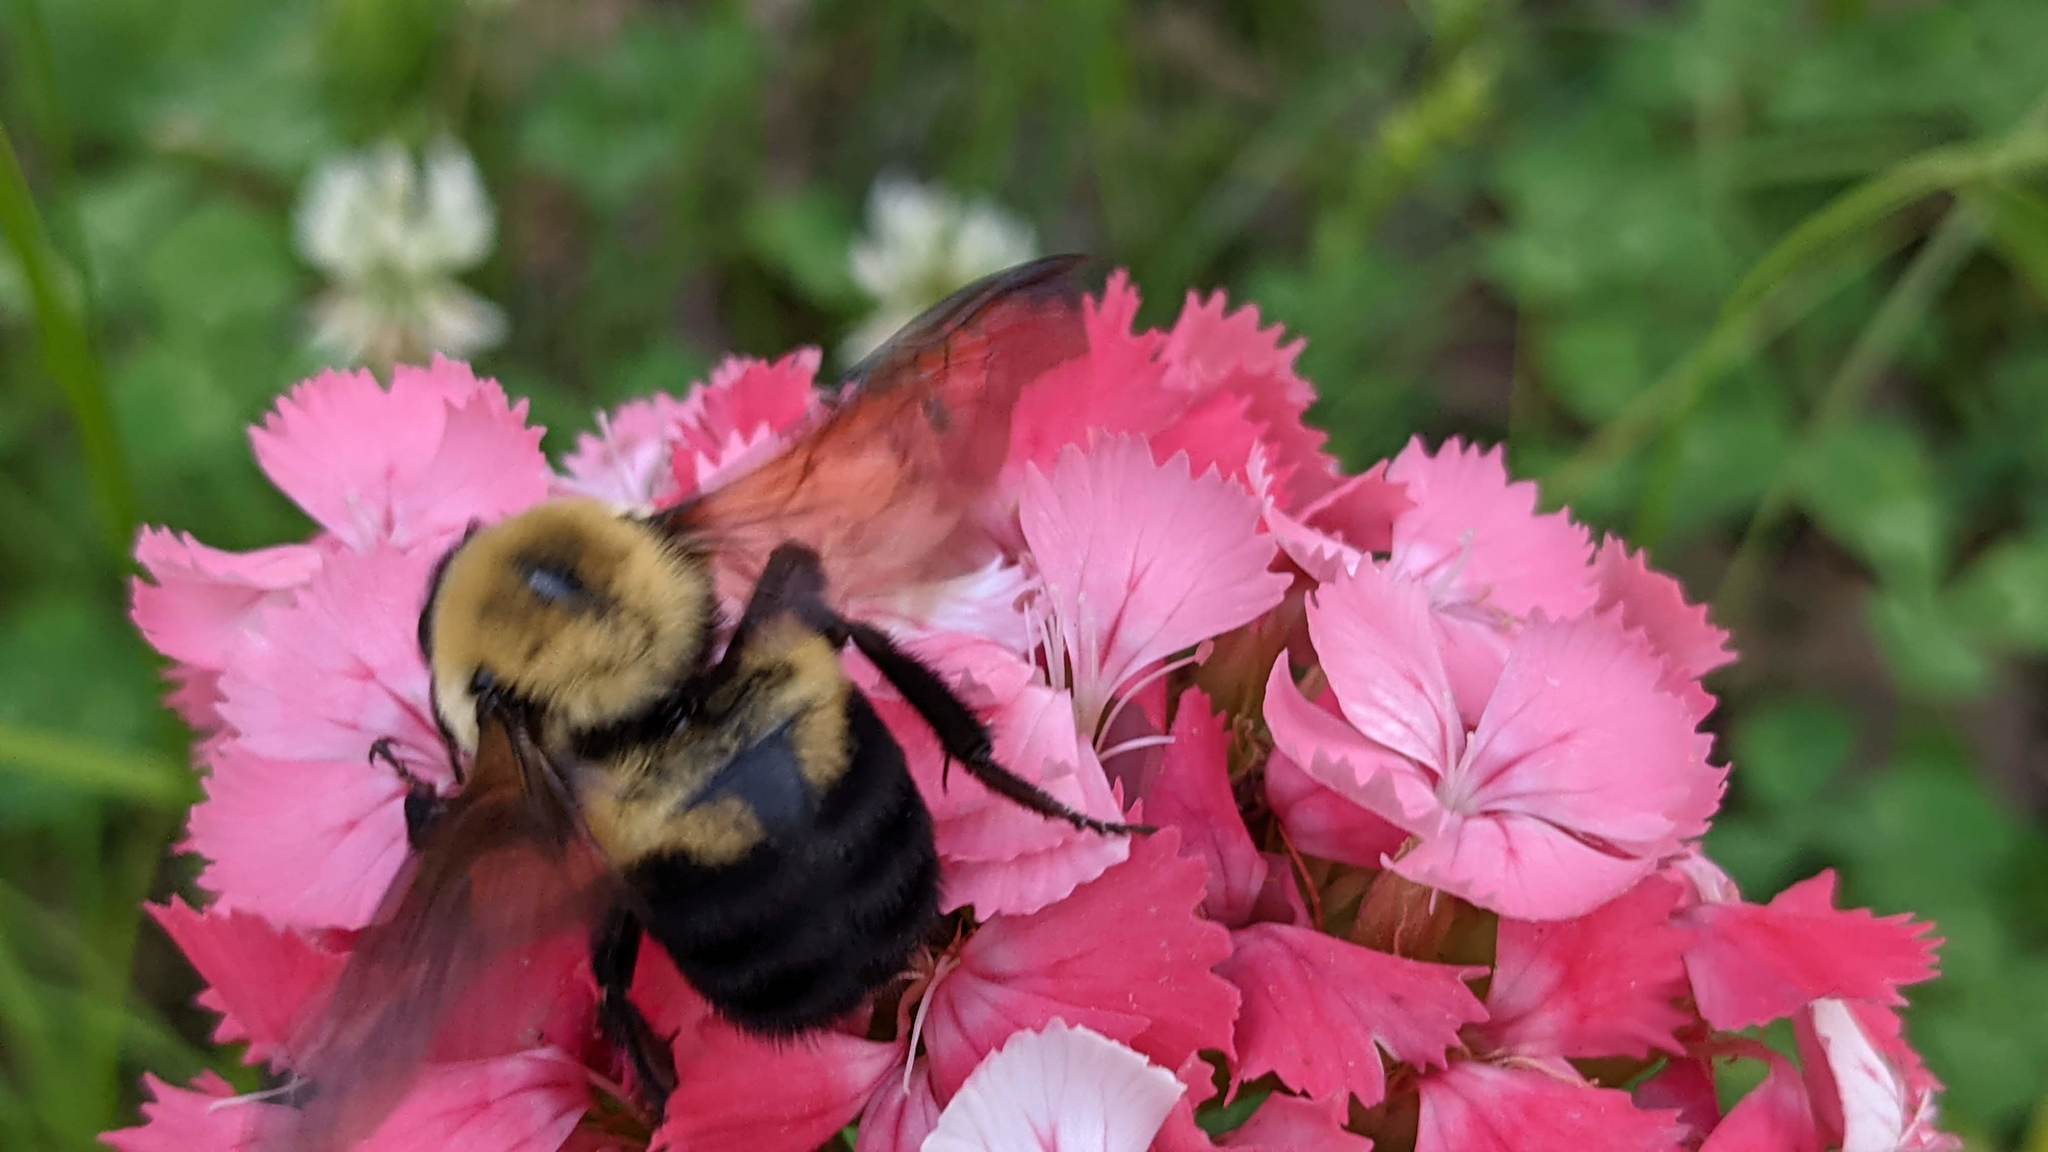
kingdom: Animalia
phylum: Arthropoda
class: Insecta
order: Hymenoptera
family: Apidae
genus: Bombus
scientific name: Bombus griseocollis
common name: Brown-belted bumble bee
